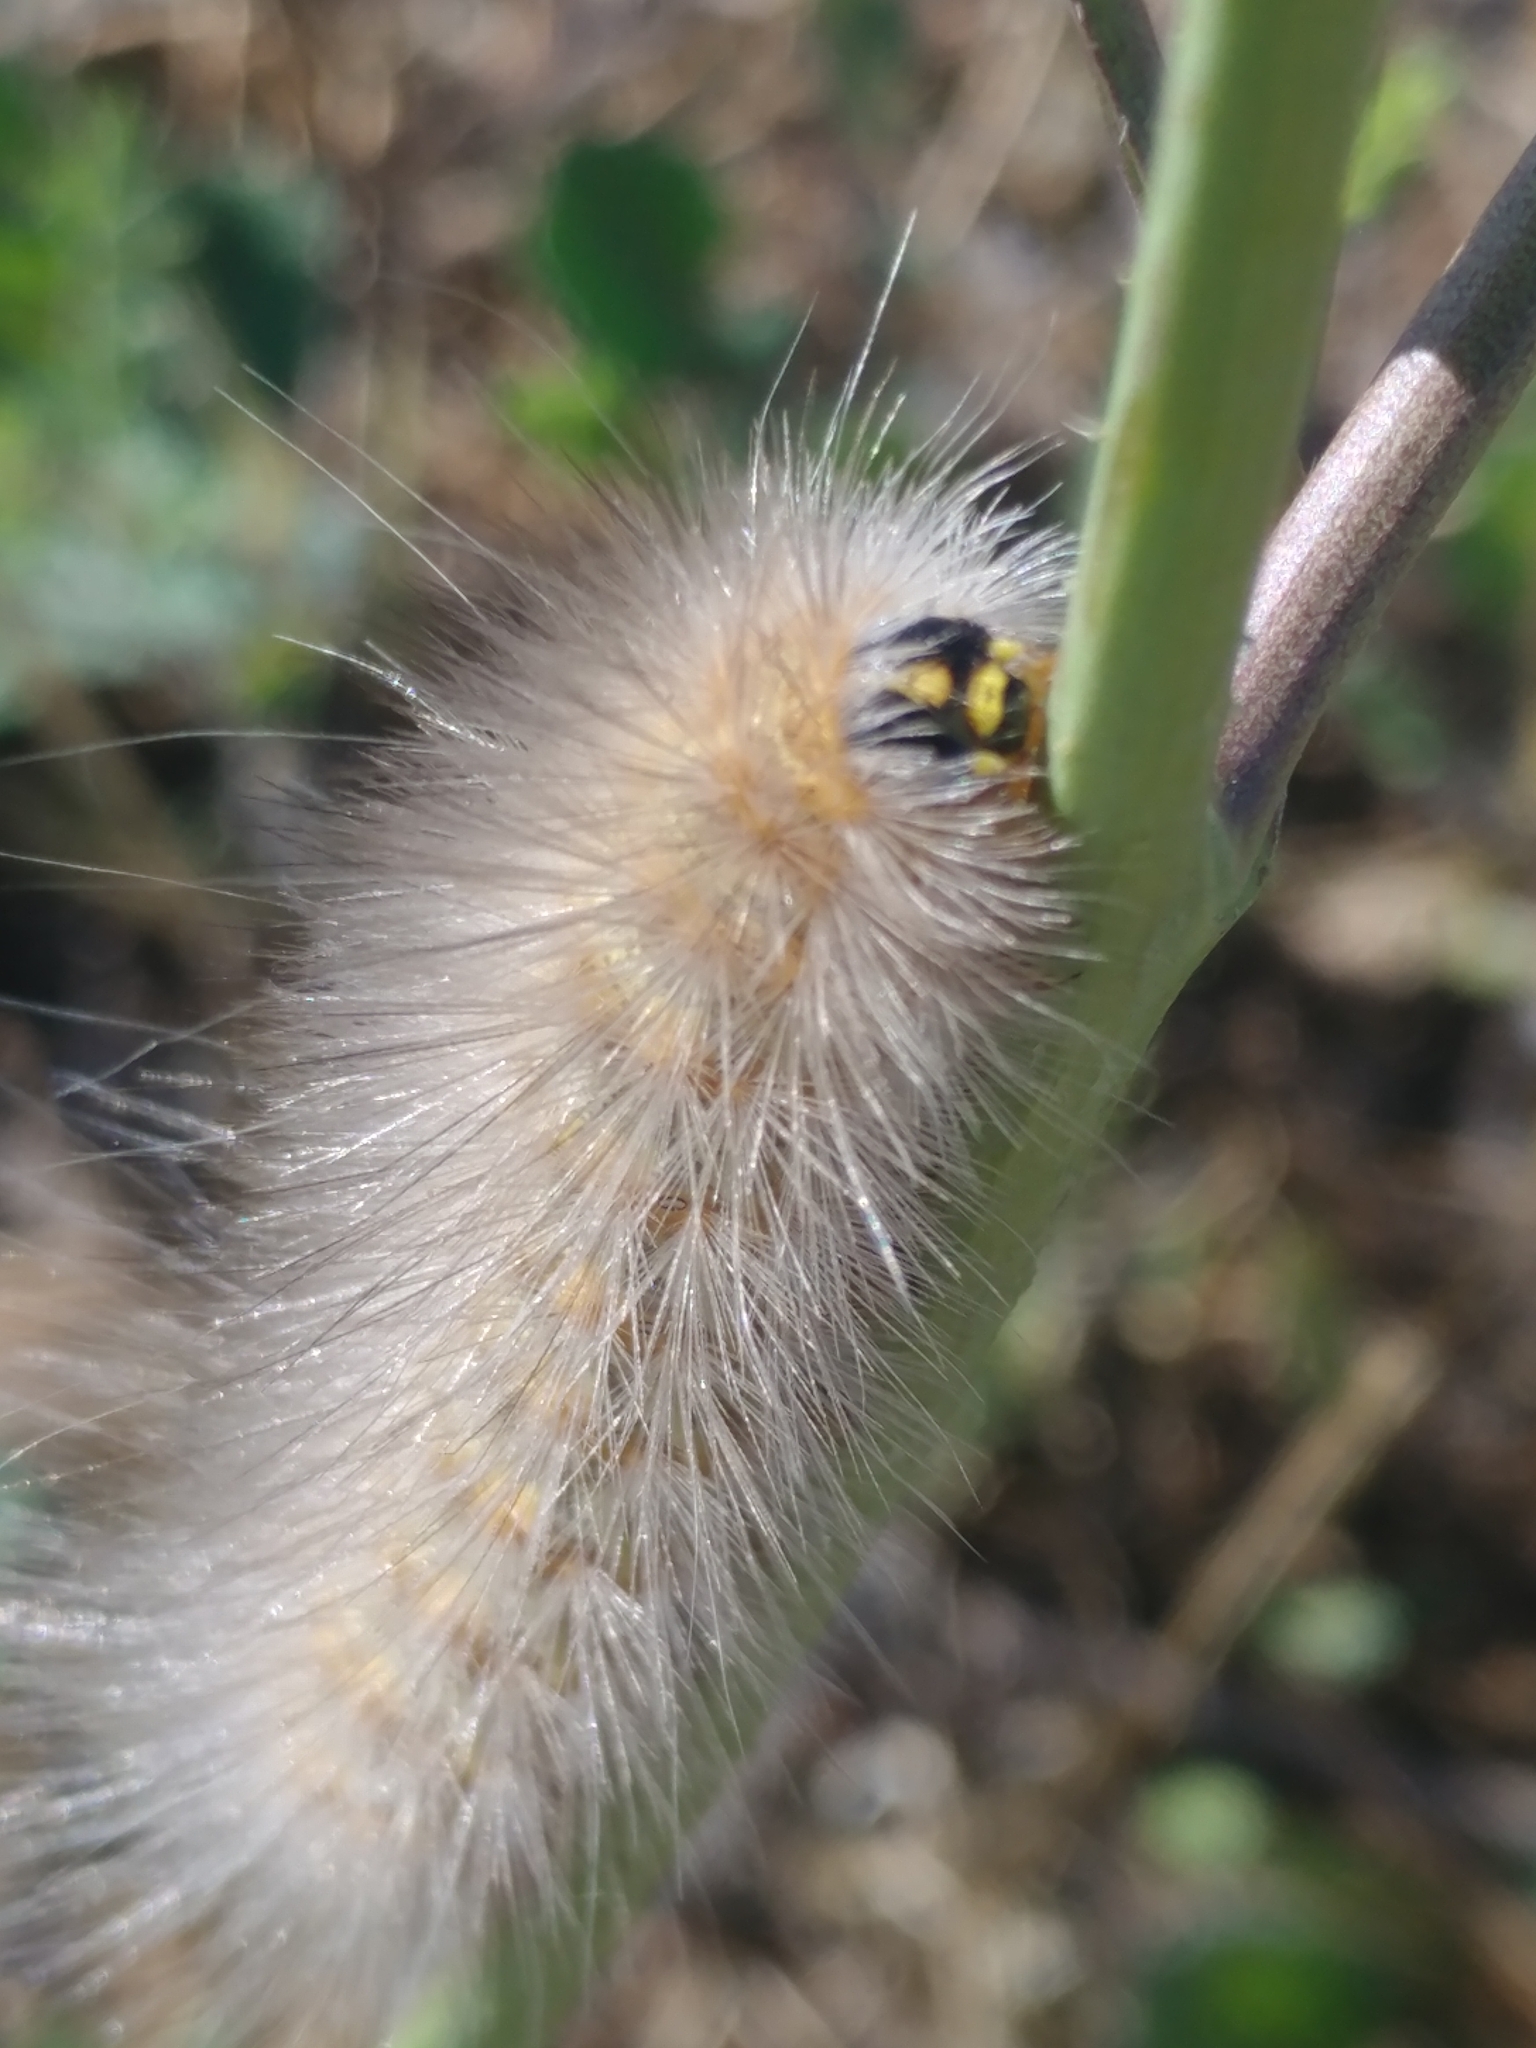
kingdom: Animalia
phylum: Arthropoda
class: Insecta
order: Lepidoptera
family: Erebidae
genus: Estigmene
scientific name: Estigmene acrea
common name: Salt marsh moth
